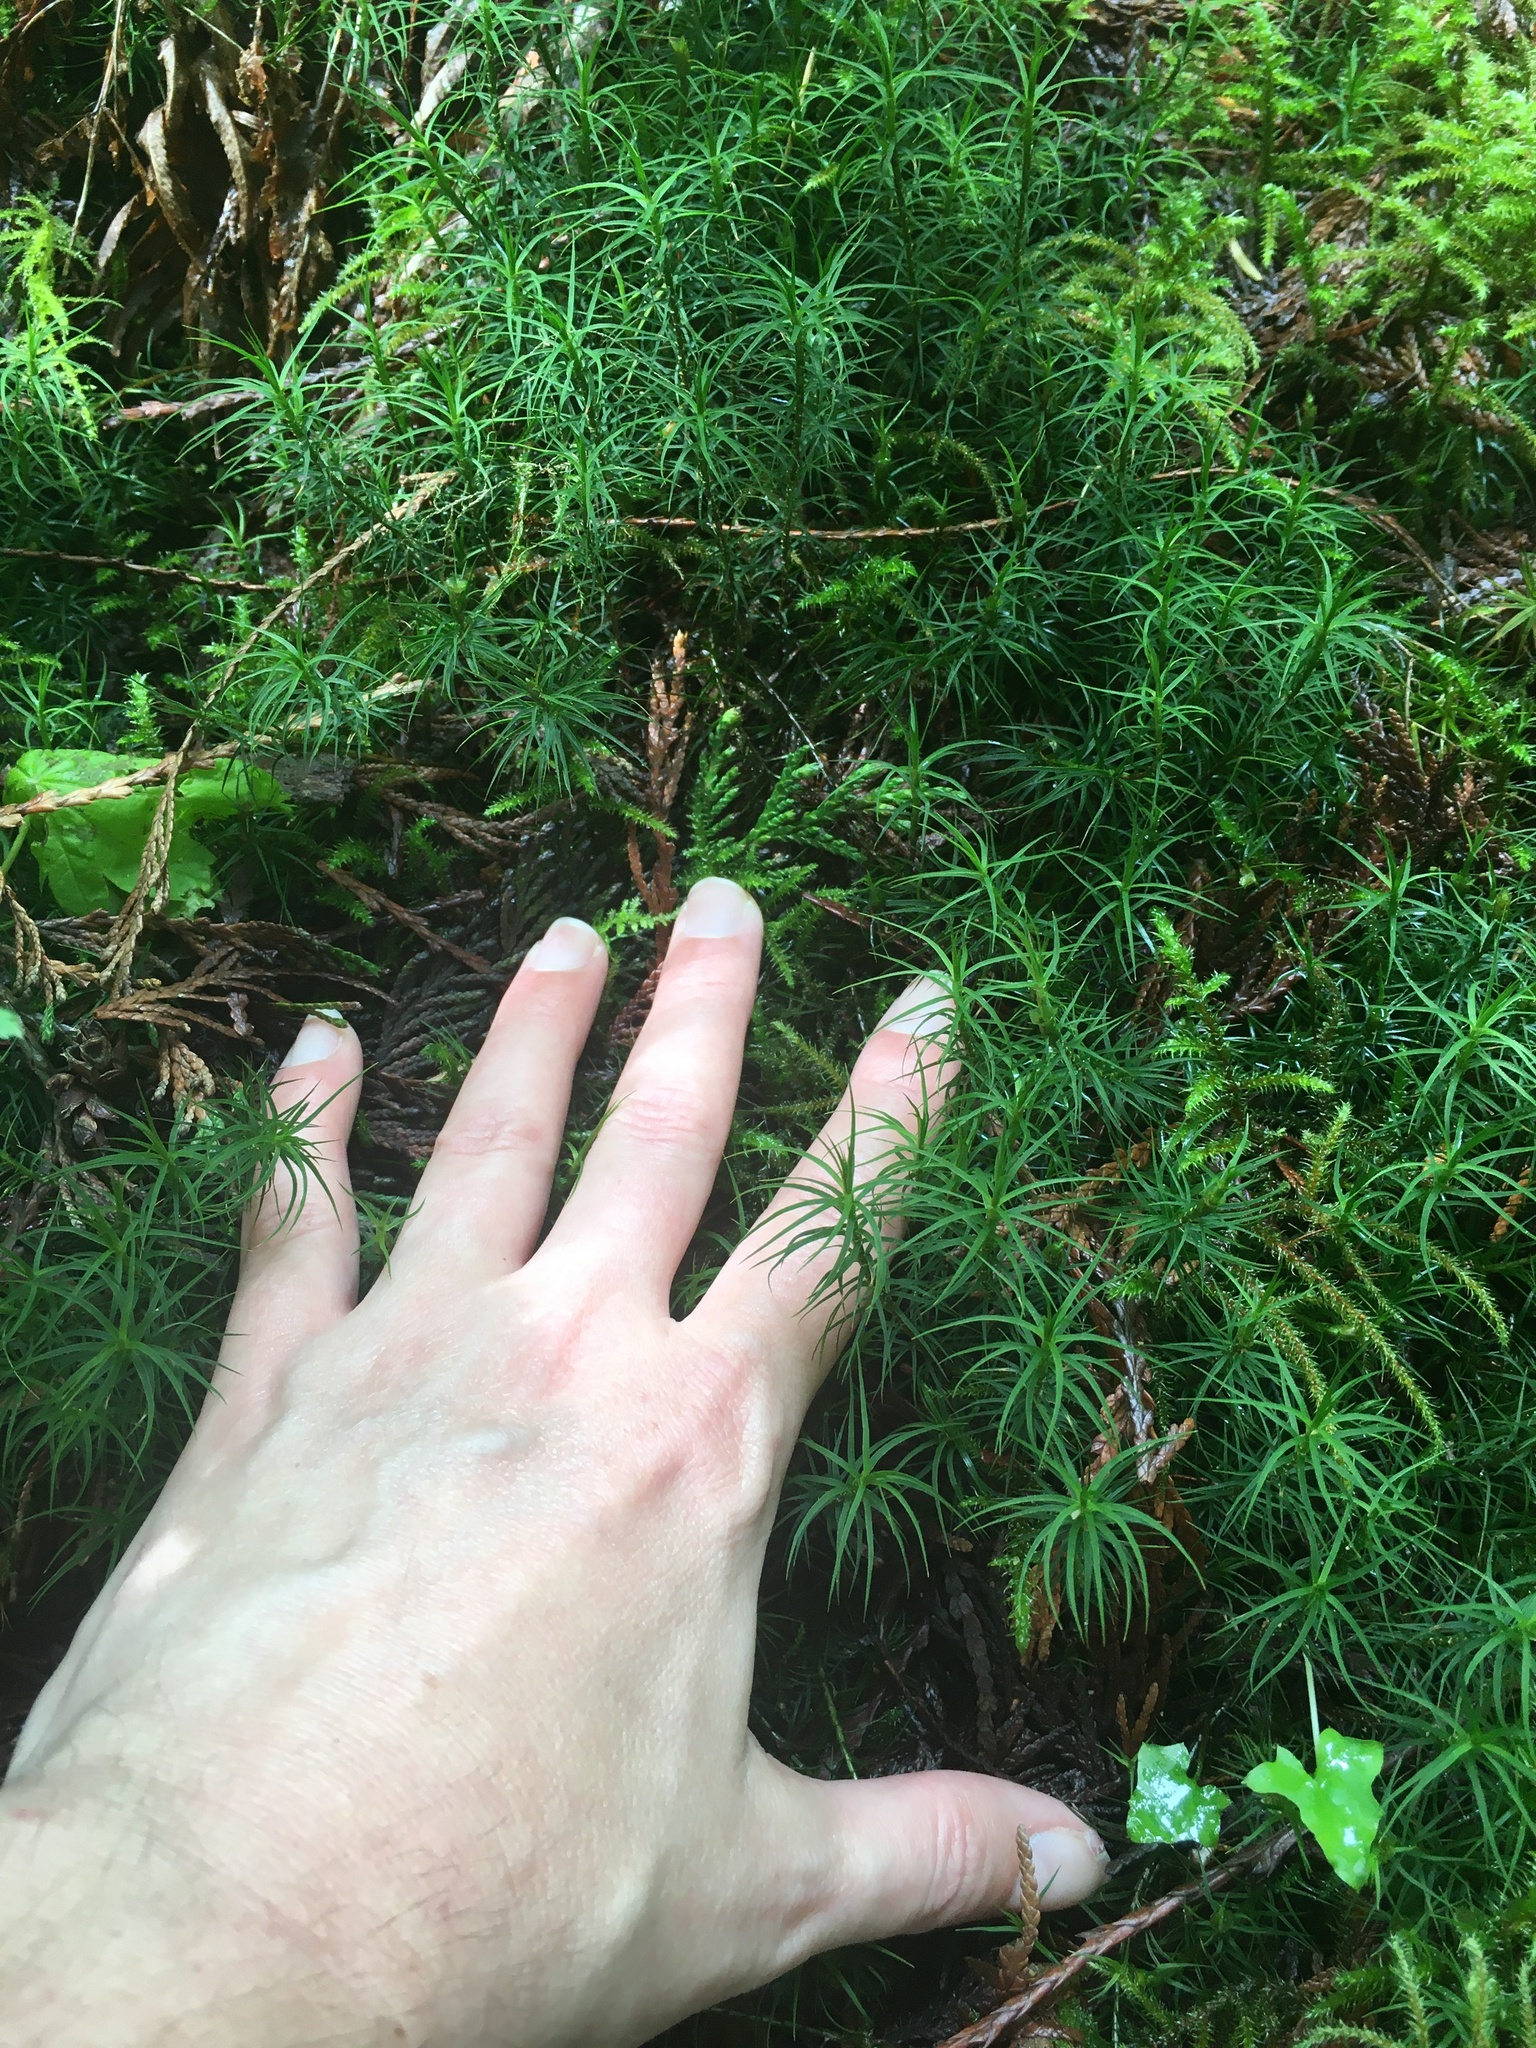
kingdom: Plantae
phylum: Bryophyta
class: Polytrichopsida
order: Polytrichales
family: Polytrichaceae
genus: Polytrichastrum
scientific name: Polytrichastrum alpinum
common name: Alpine haircap
